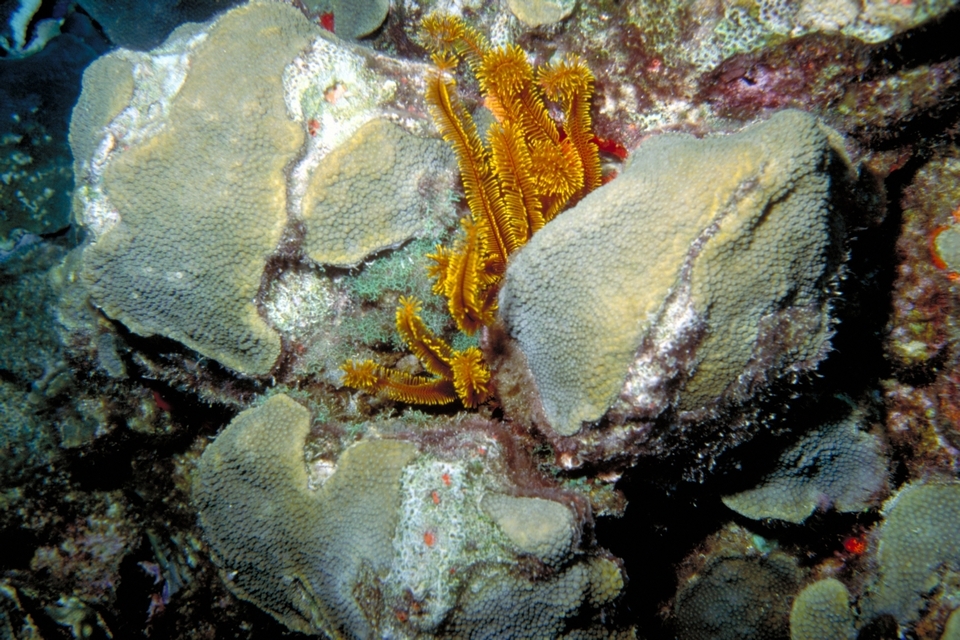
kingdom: Animalia
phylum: Echinodermata
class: Crinoidea
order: Comatulida
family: Comatulidae
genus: Davidaster
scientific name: Davidaster rubiginosus
